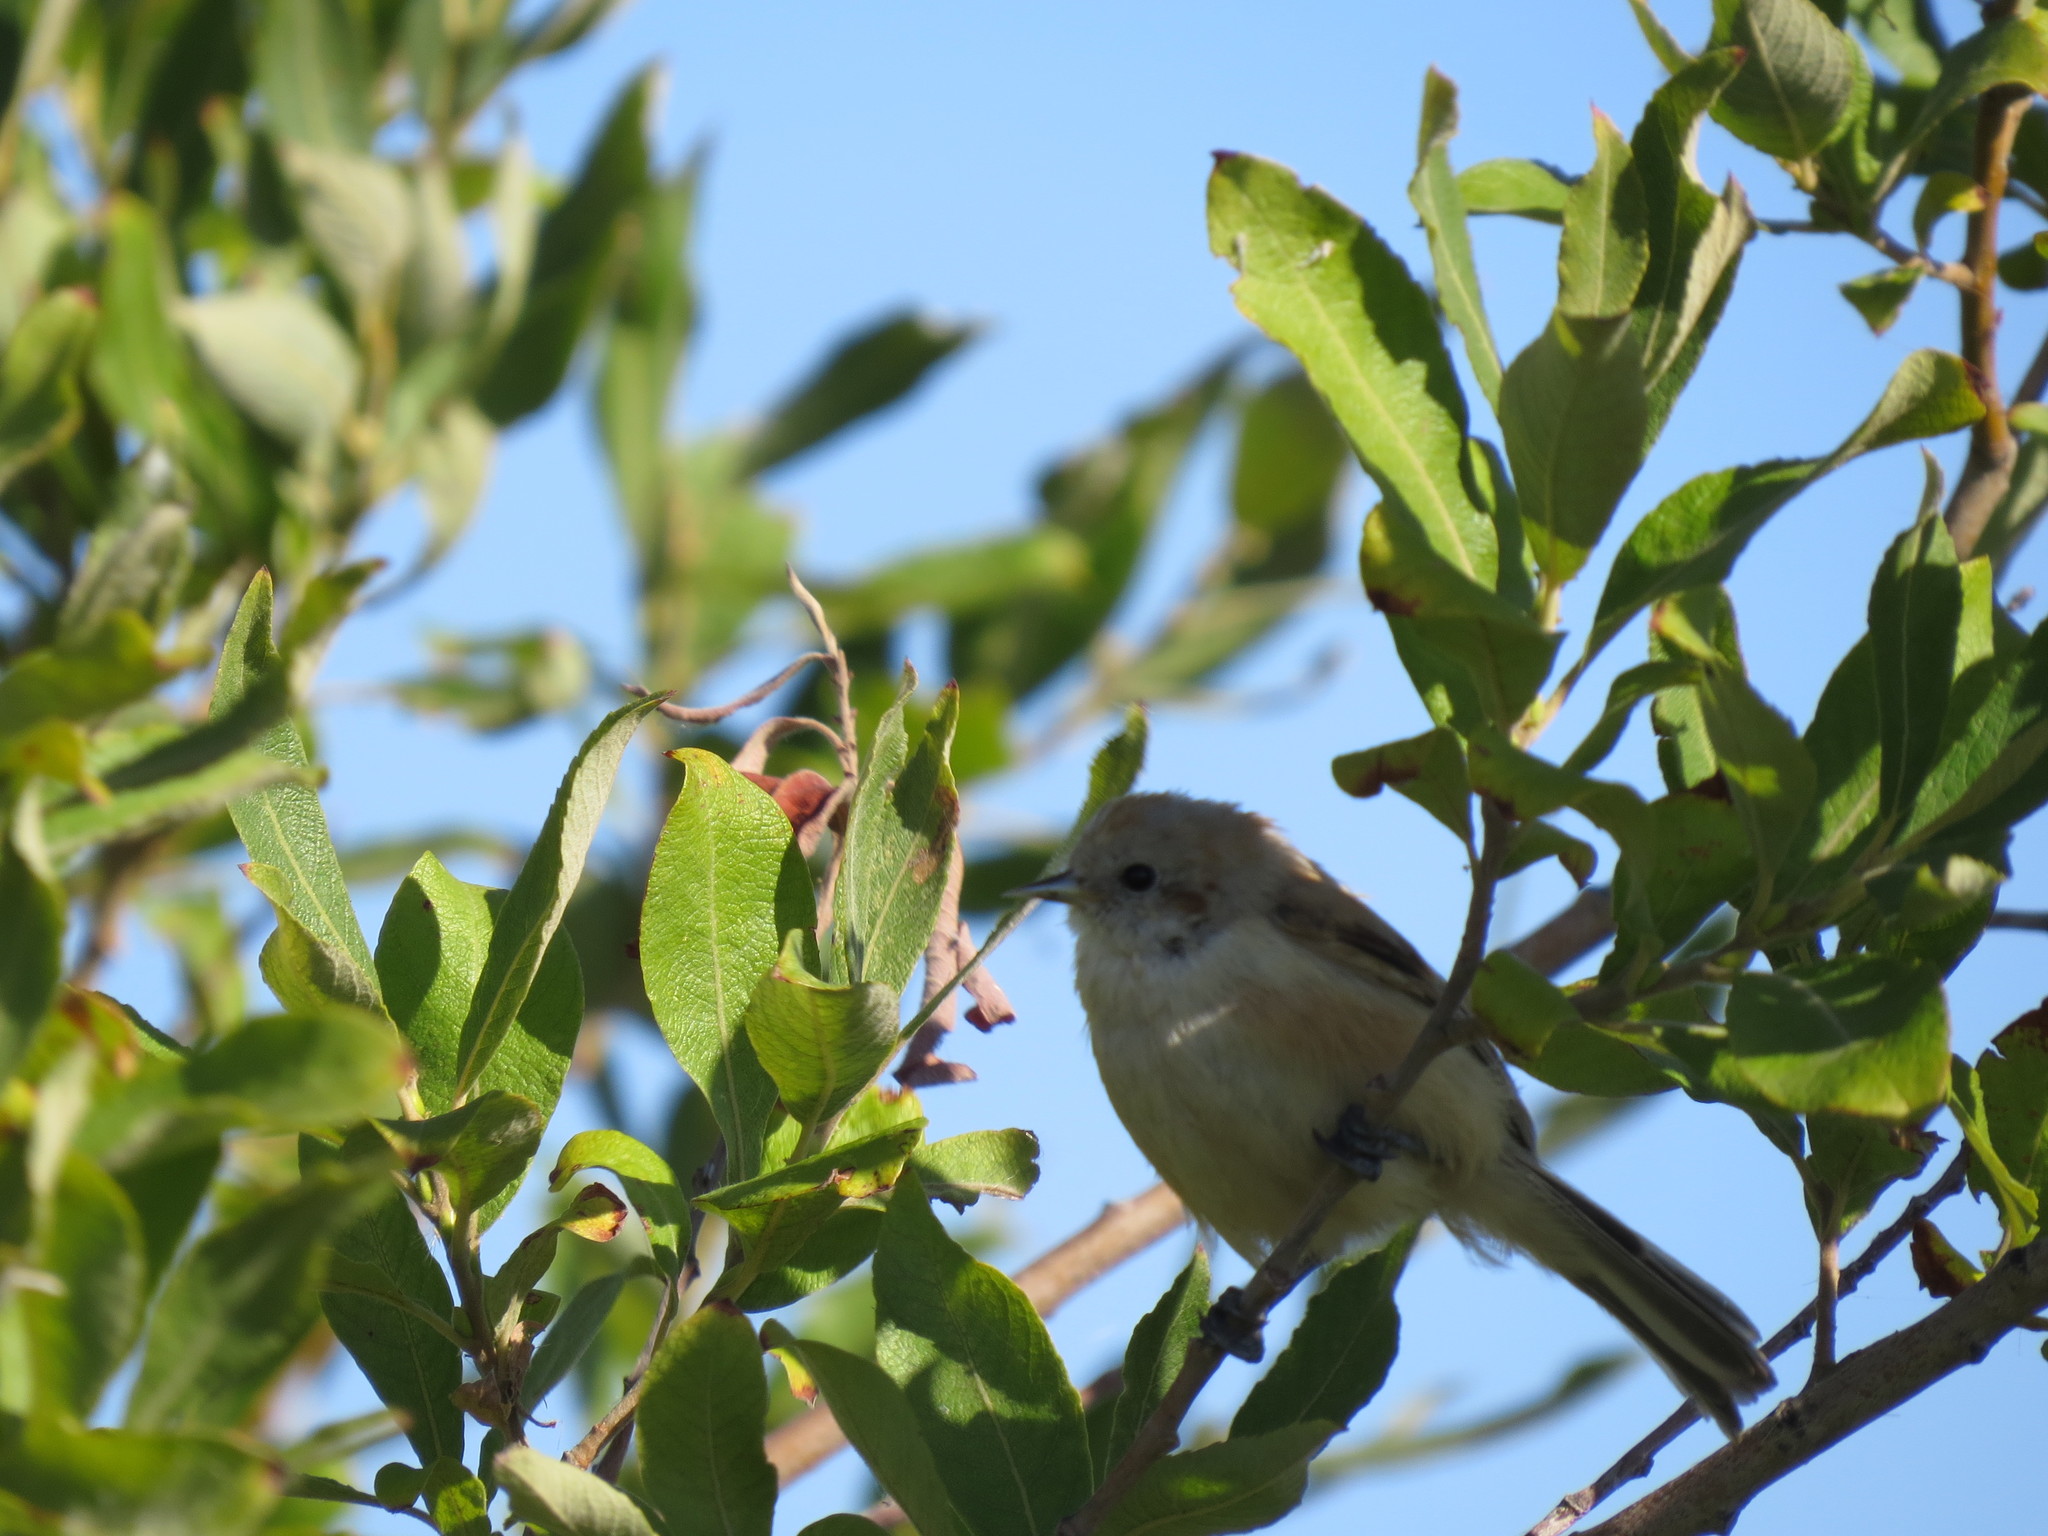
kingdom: Animalia
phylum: Chordata
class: Aves
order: Passeriformes
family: Remizidae
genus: Remiz
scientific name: Remiz pendulinus
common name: Eurasian penduline tit
